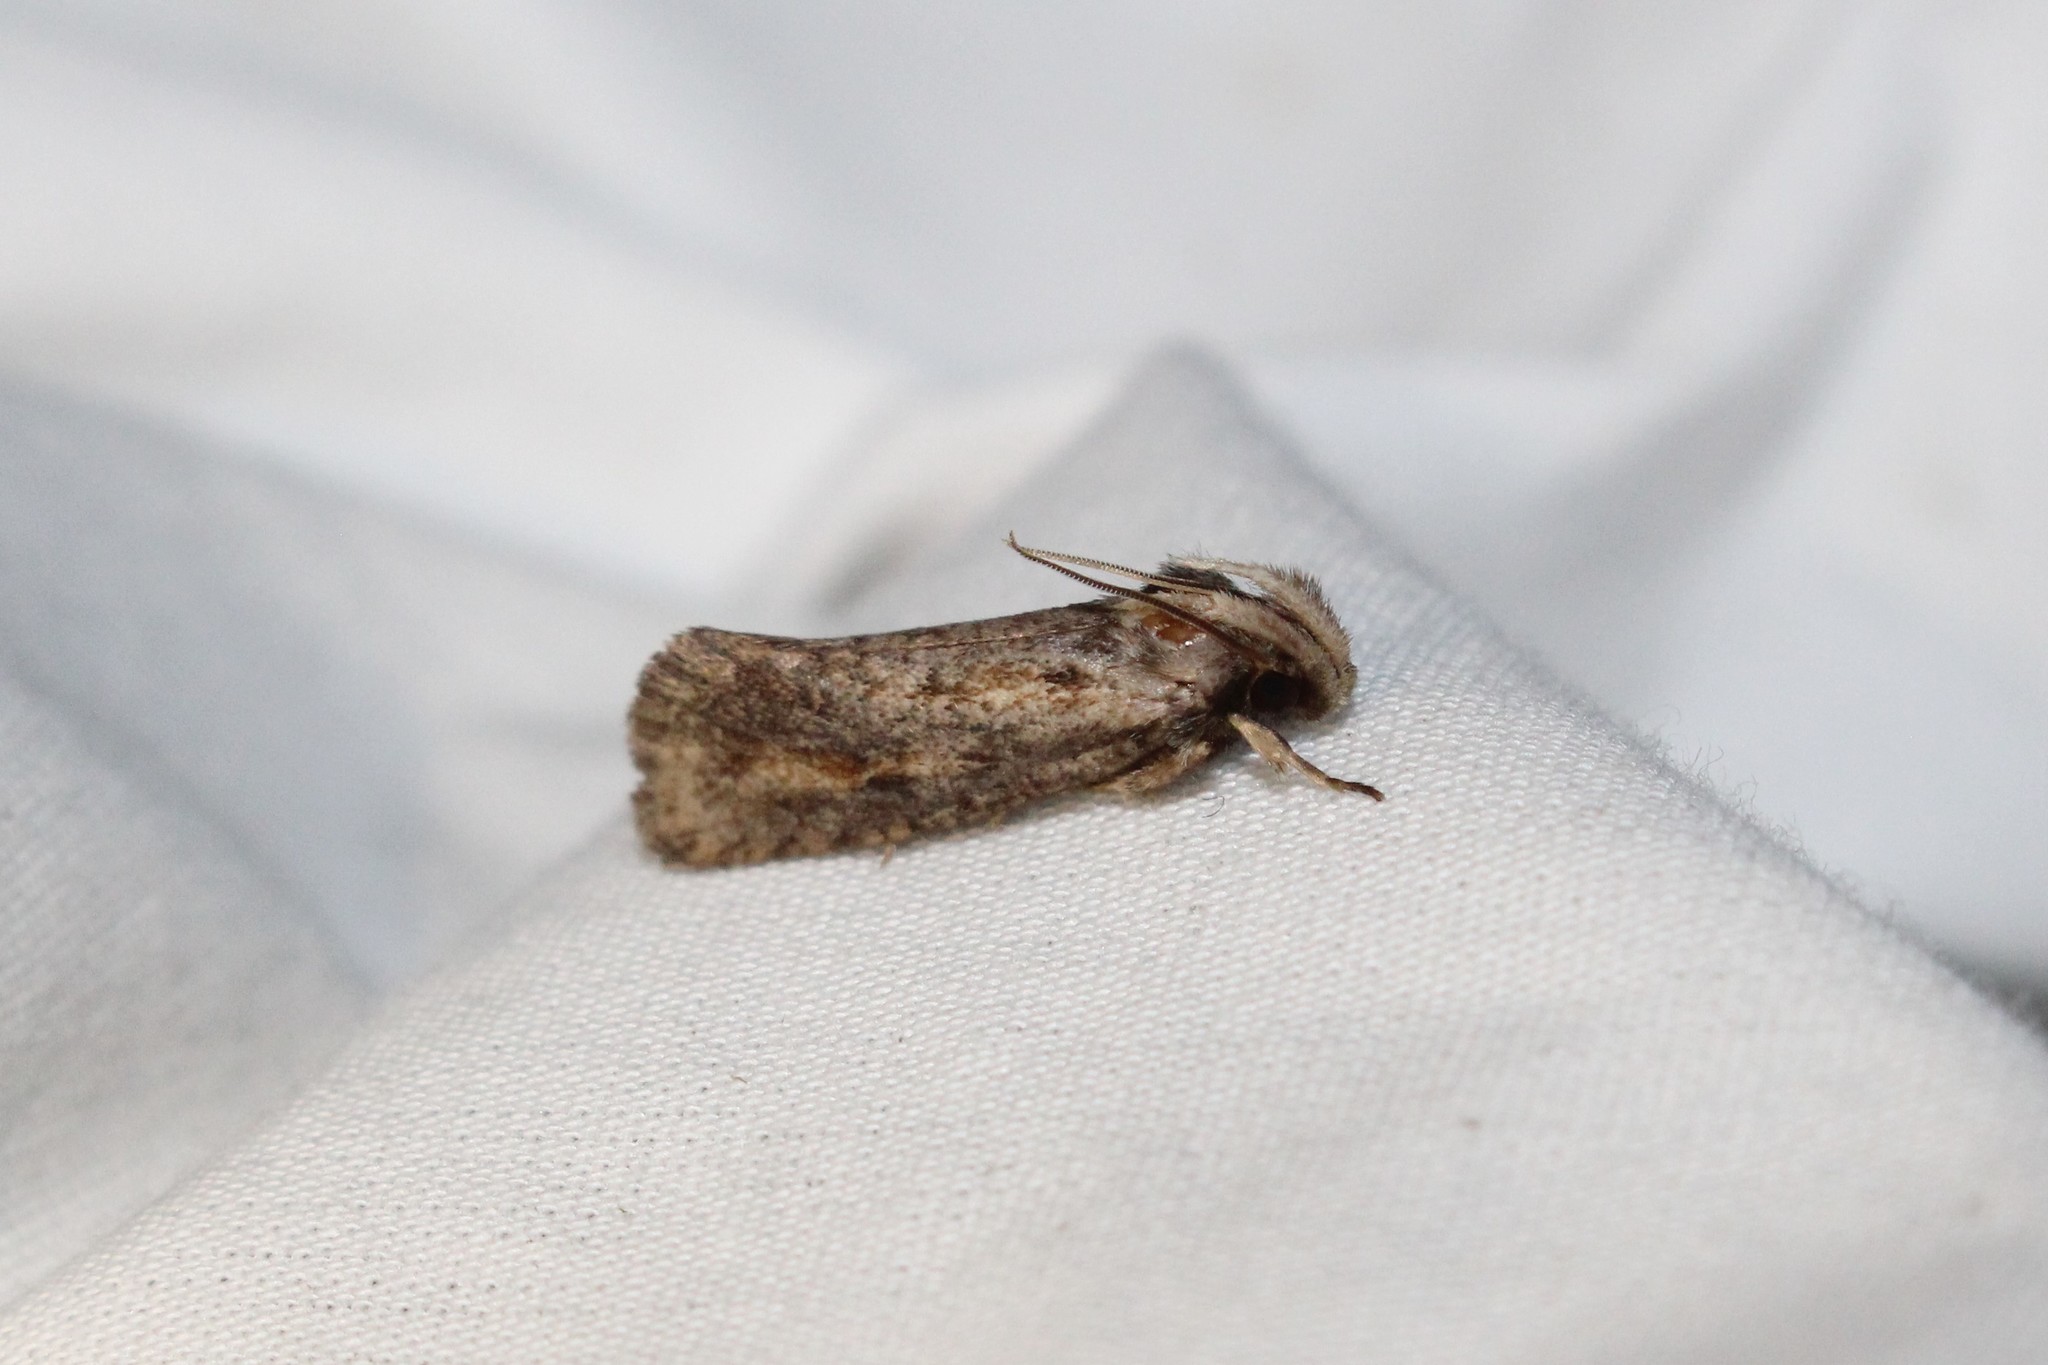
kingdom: Animalia
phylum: Arthropoda
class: Insecta
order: Lepidoptera
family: Tineidae
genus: Acrolophus
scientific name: Acrolophus popeanella
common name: Clemens' grass tubeworm moth
